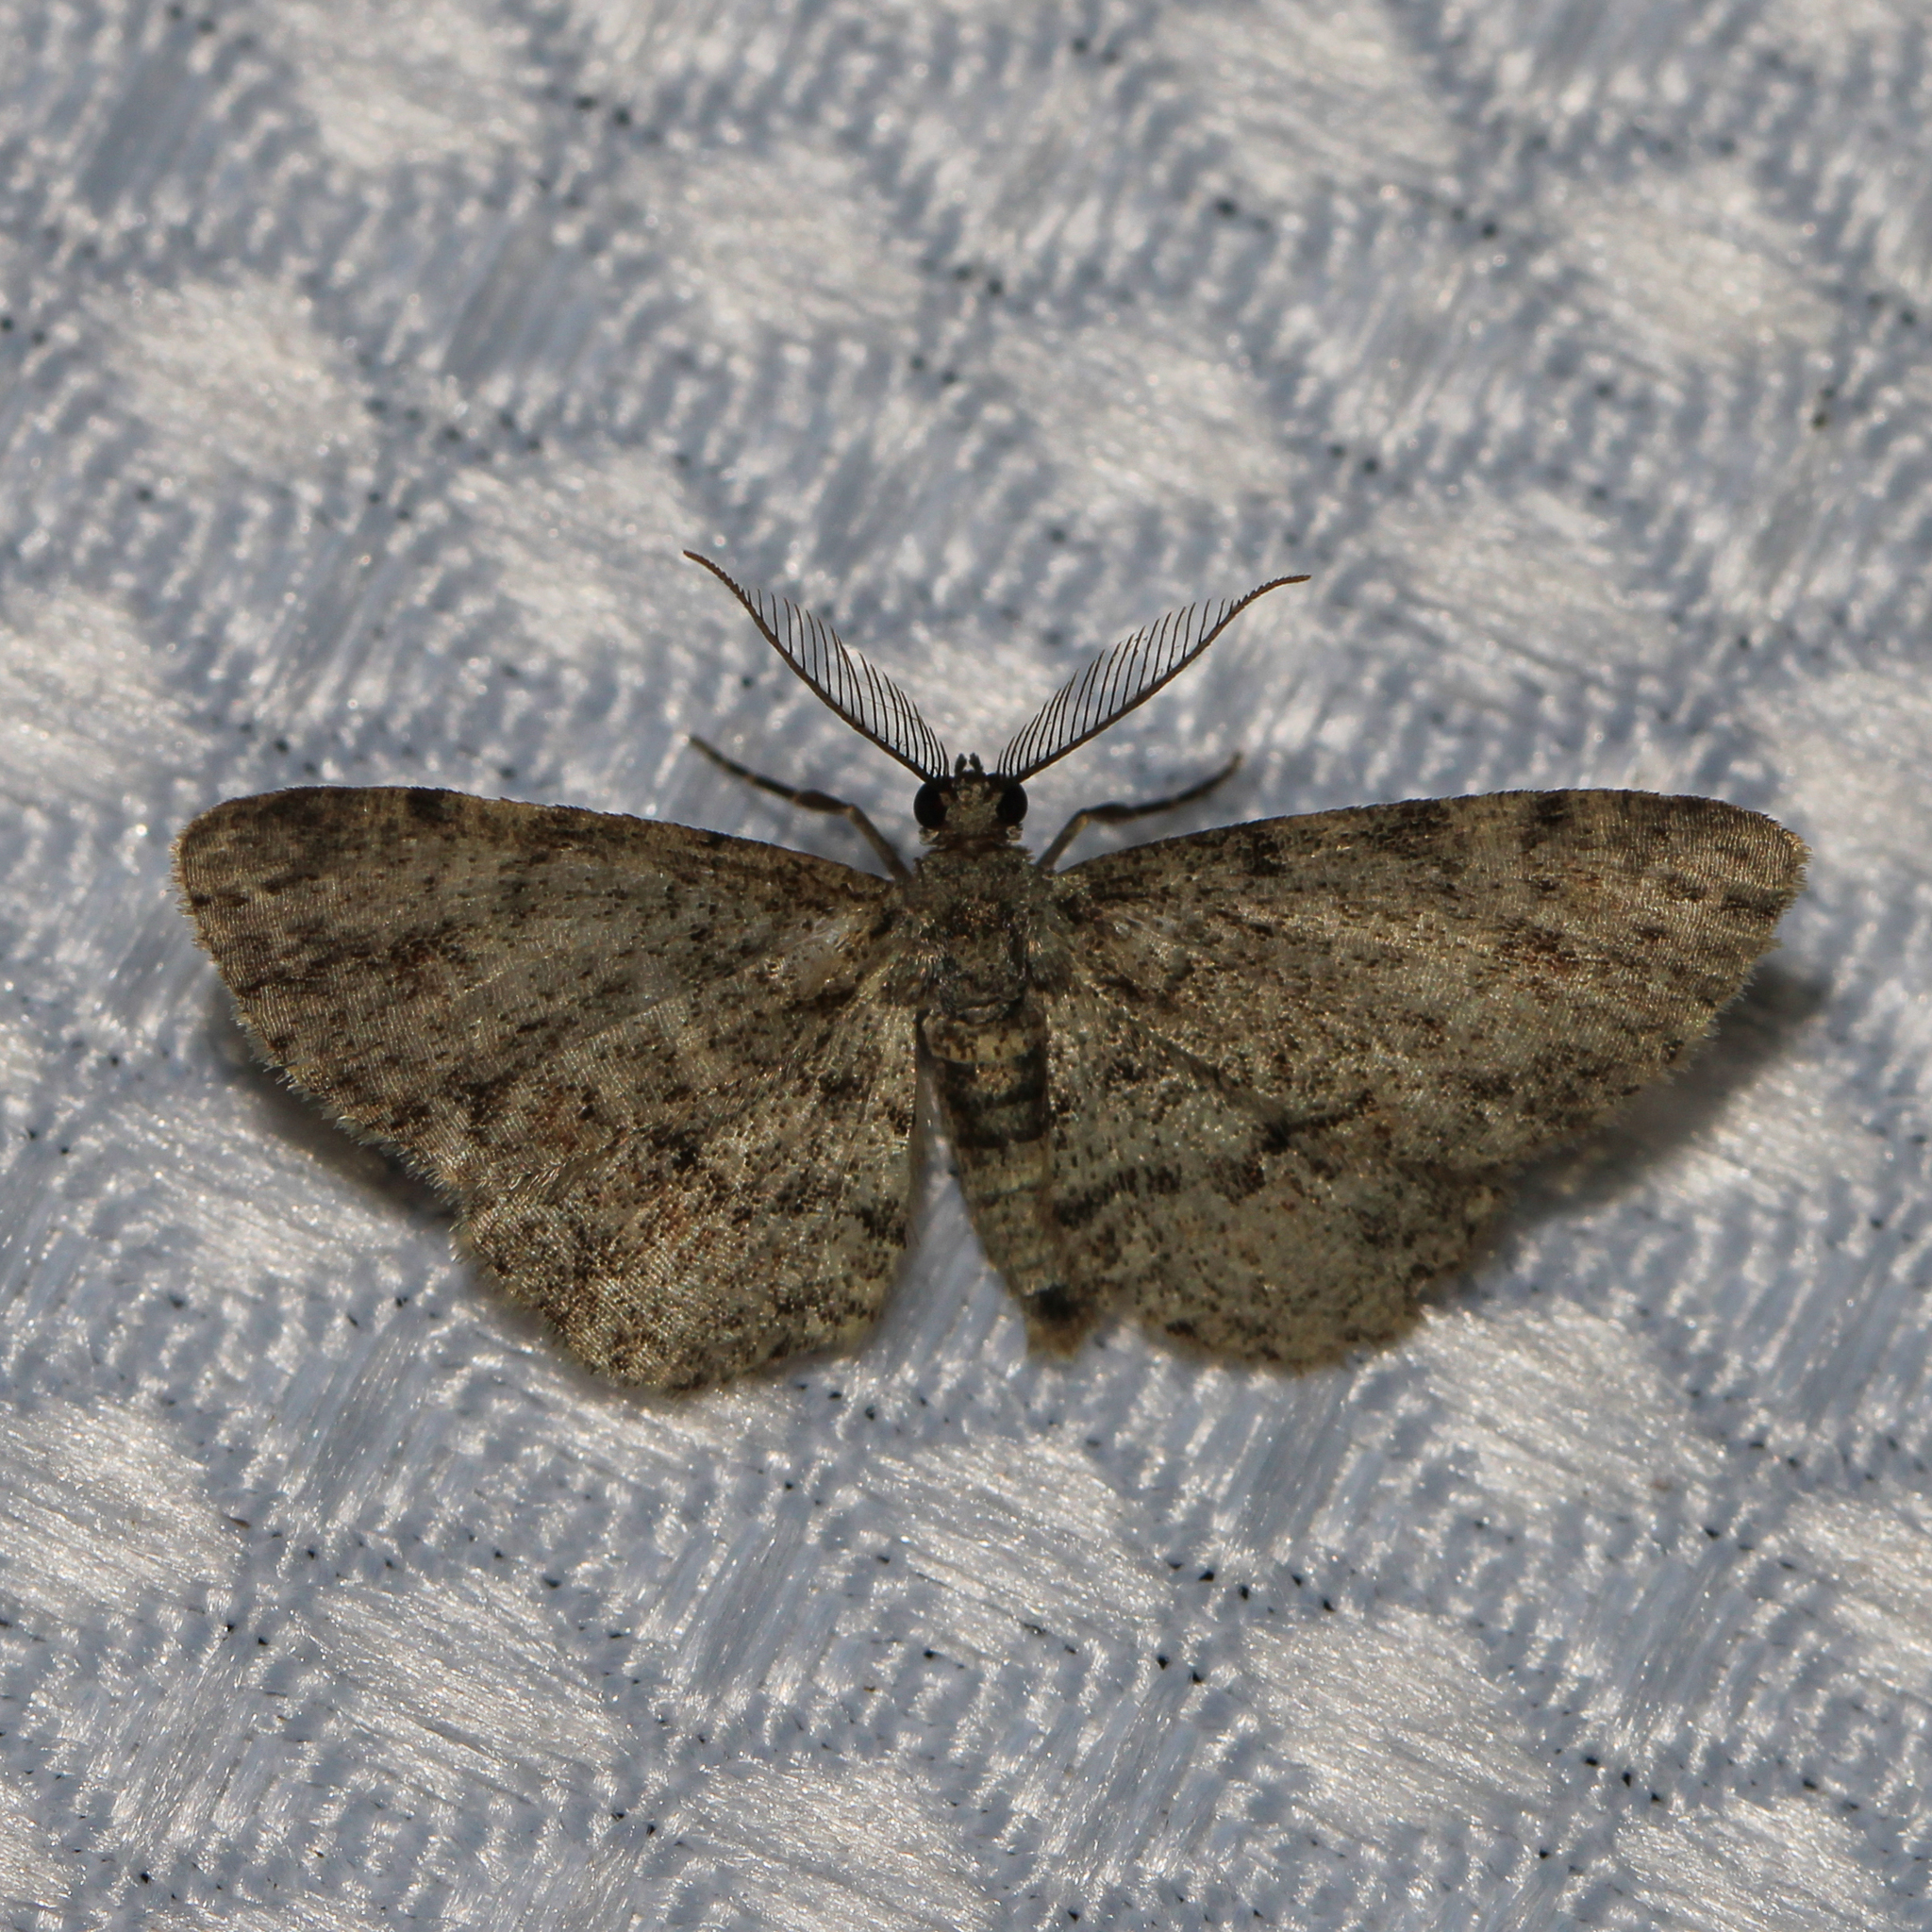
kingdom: Animalia
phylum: Arthropoda
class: Insecta
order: Lepidoptera
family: Geometridae
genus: Glenoides
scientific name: Glenoides texanaria
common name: Texas gray
